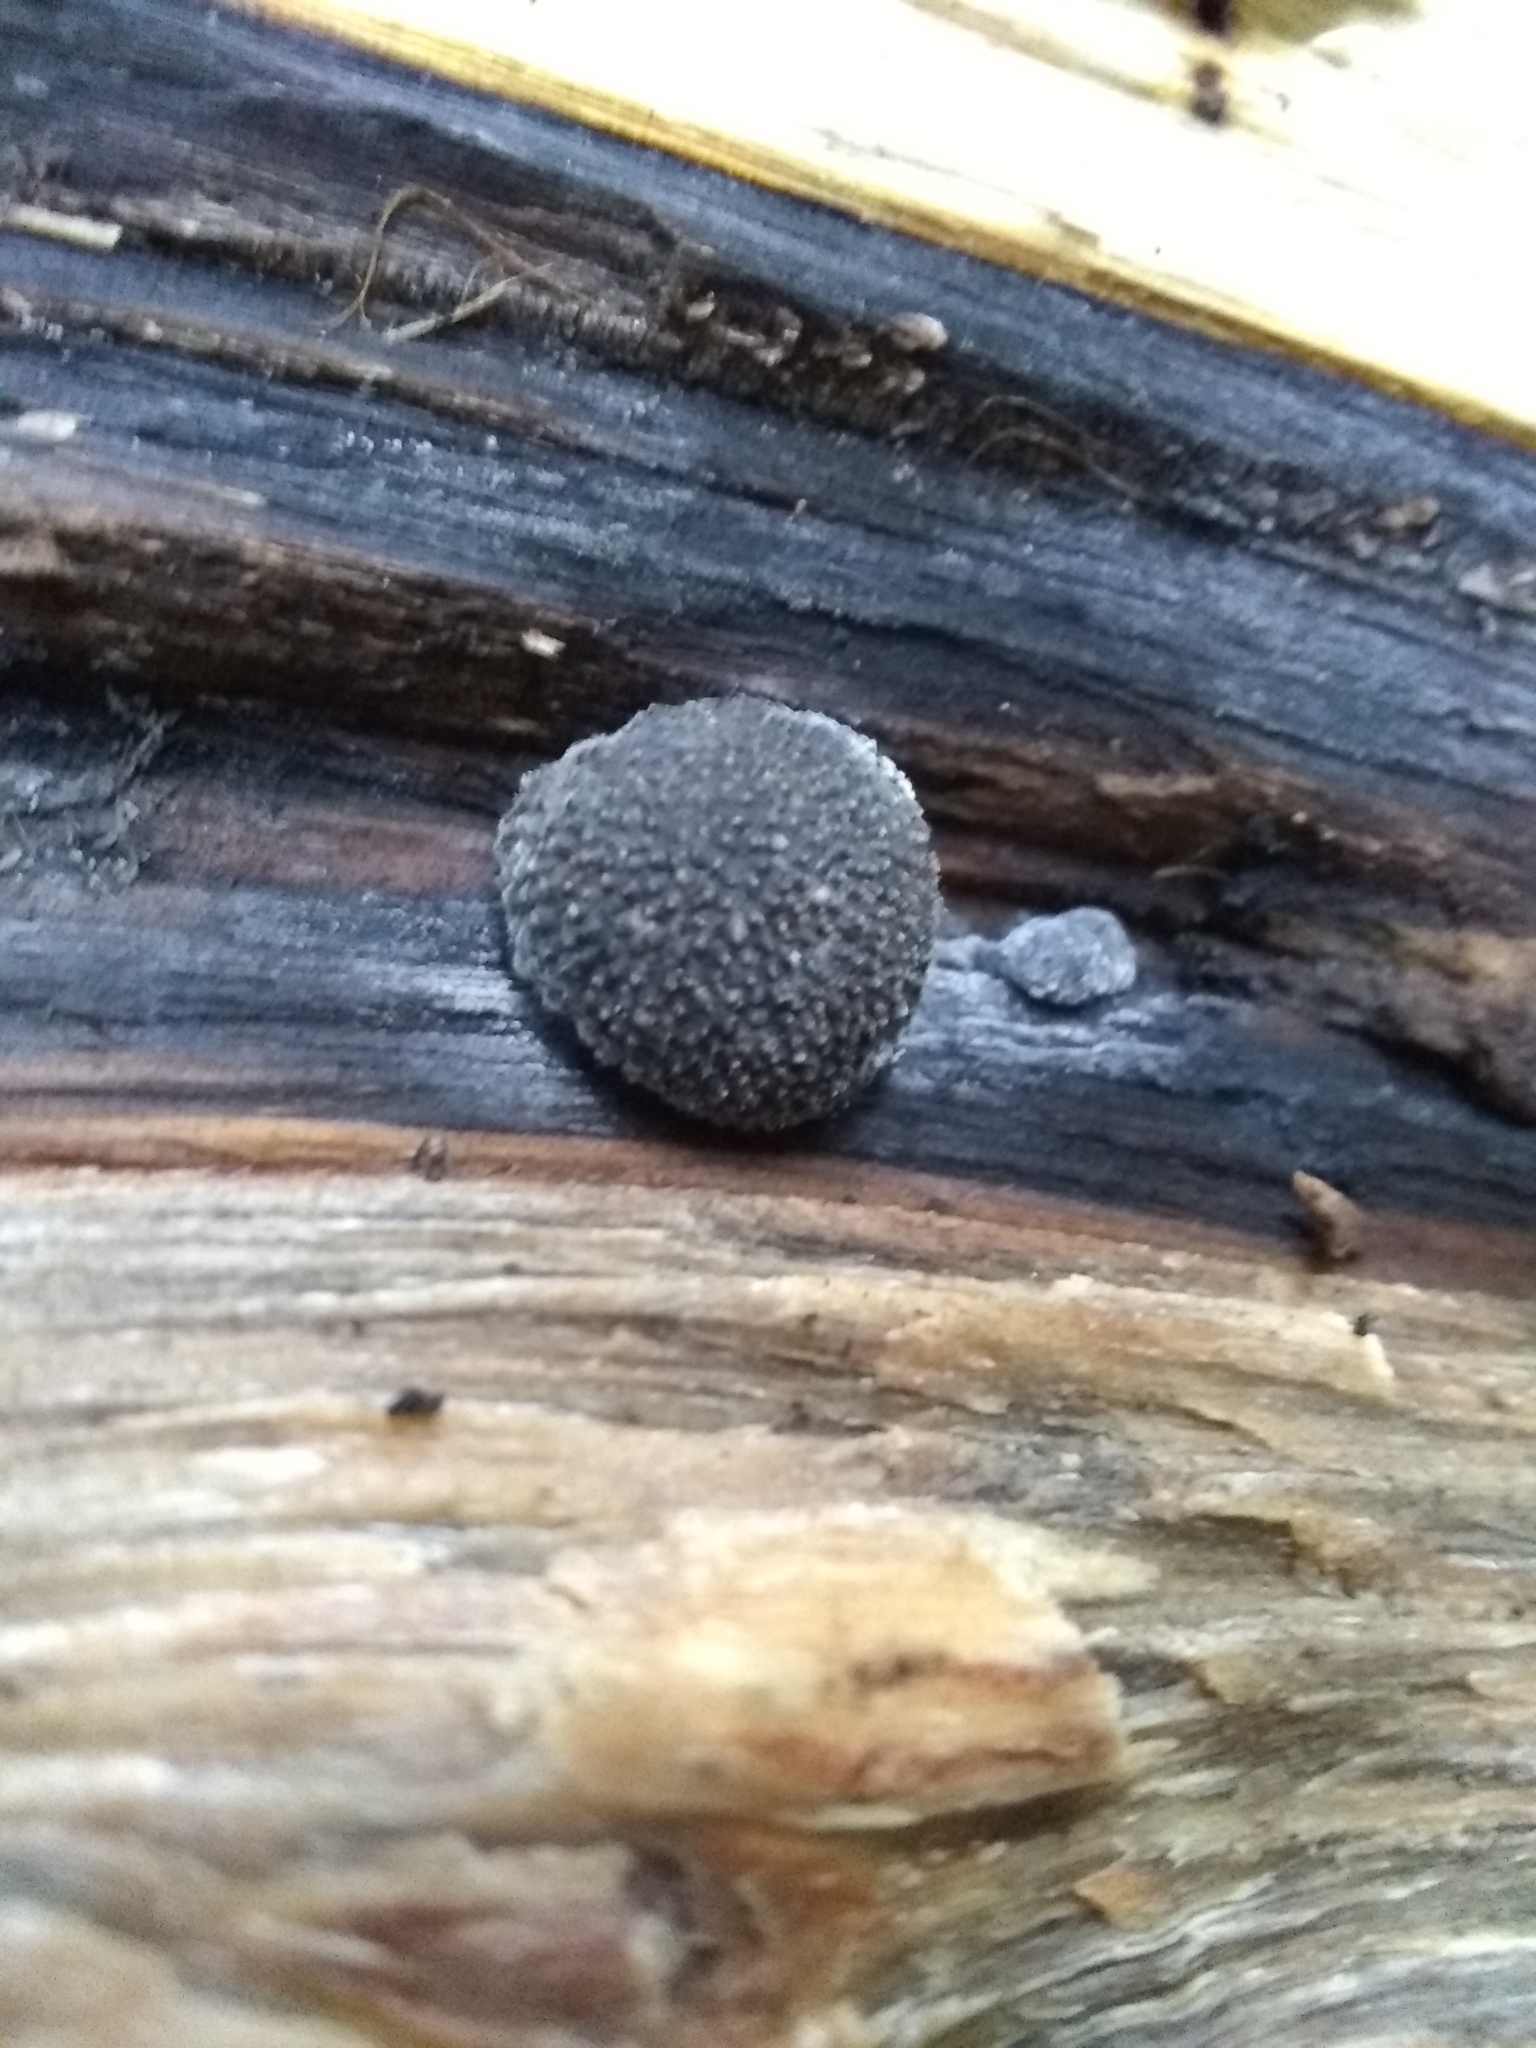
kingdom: Fungi
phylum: Ascomycota
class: Sordariomycetes
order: Xylariales
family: Hypoxylaceae
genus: Annulohypoxylon
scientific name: Annulohypoxylon thouarsianum
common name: Cramp balls
